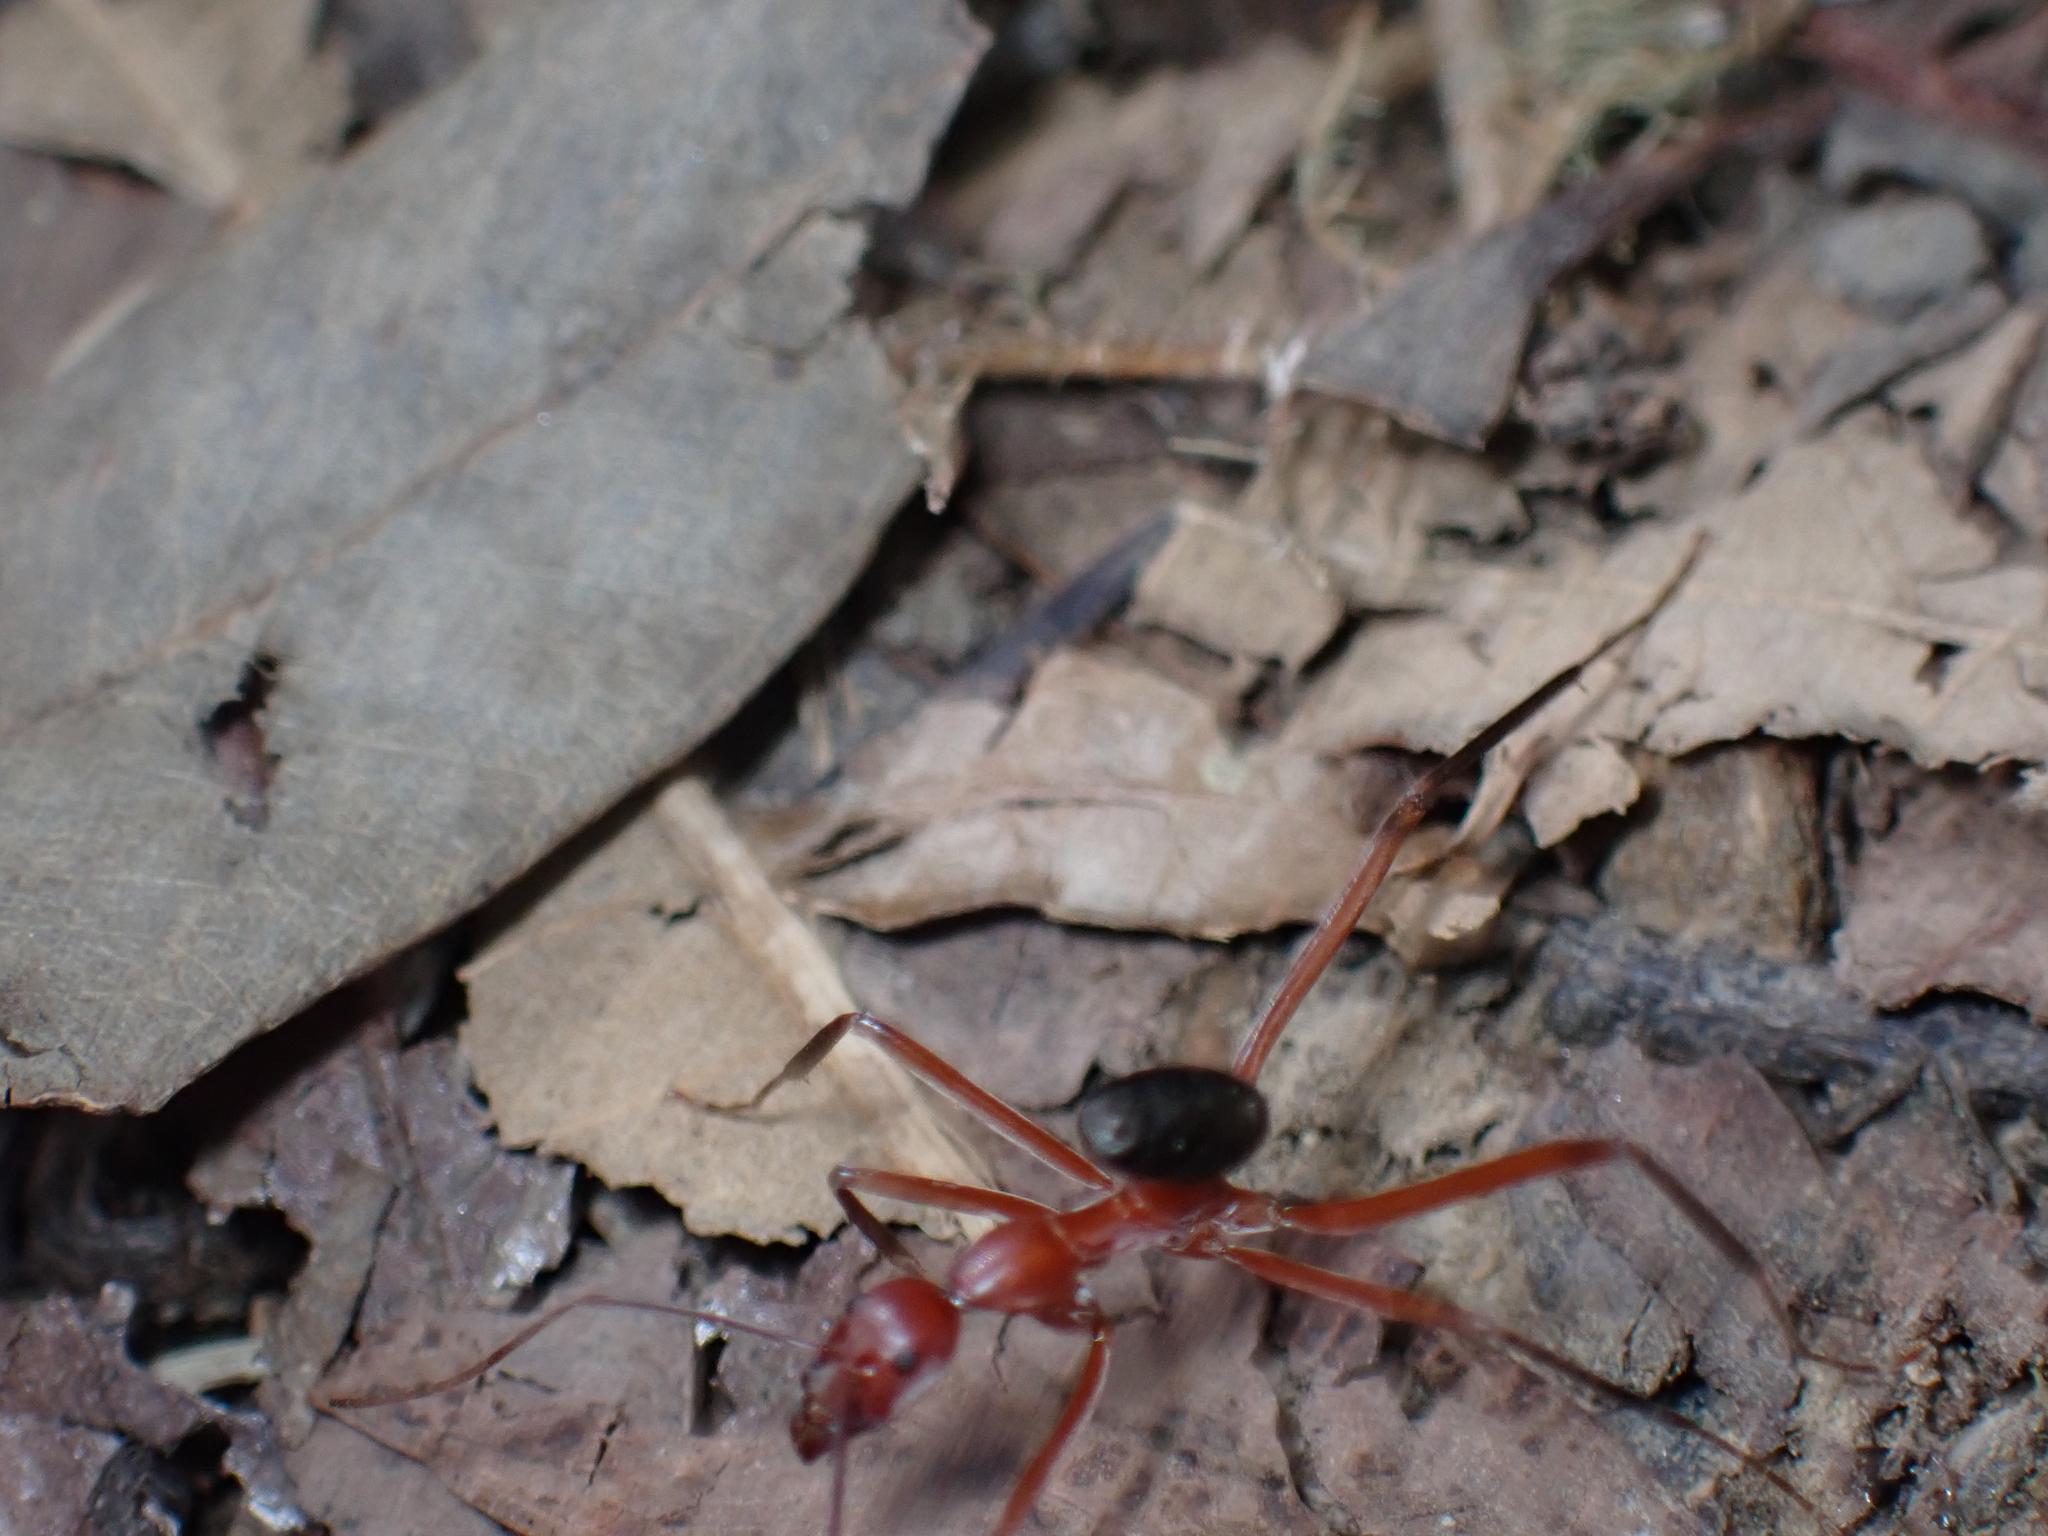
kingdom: Animalia
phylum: Arthropoda
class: Insecta
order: Hymenoptera
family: Formicidae
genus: Leptomyrmex
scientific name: Leptomyrmex tibialis
